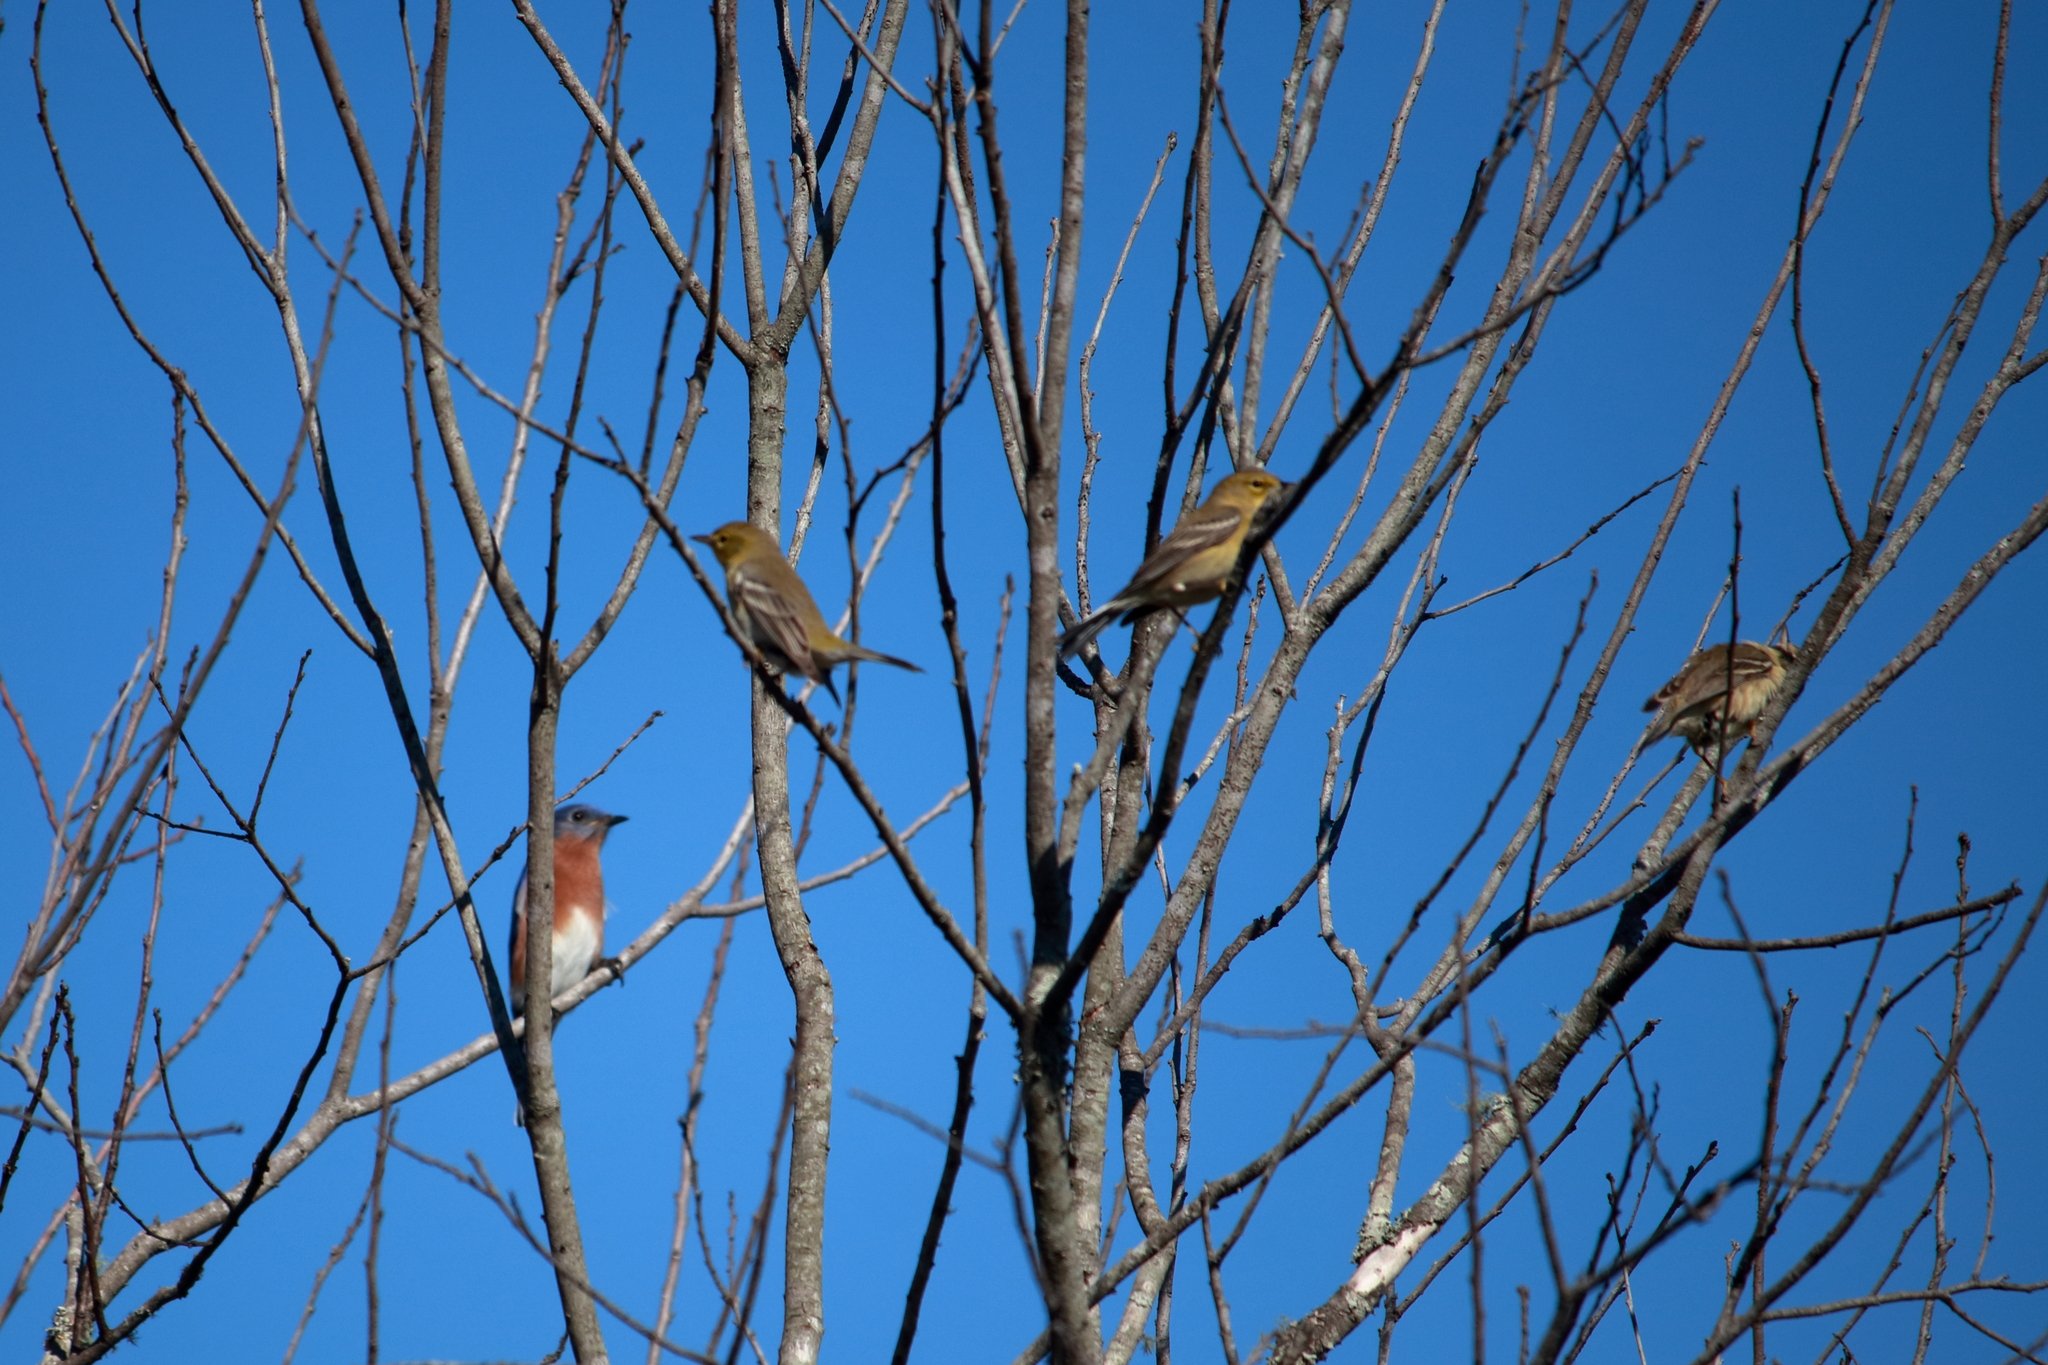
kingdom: Animalia
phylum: Chordata
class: Aves
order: Passeriformes
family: Parulidae
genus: Setophaga
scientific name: Setophaga pinus
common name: Pine warbler
